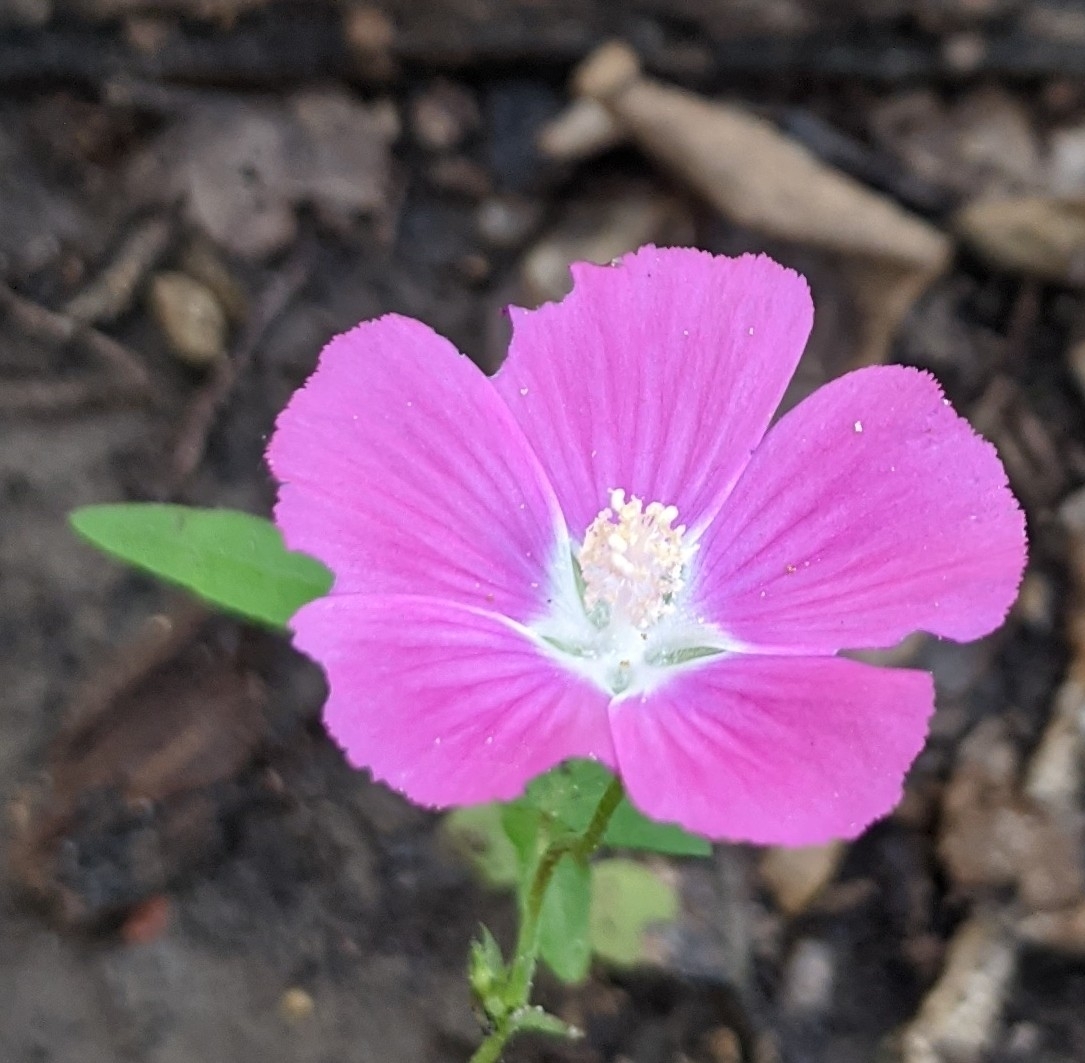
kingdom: Plantae
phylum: Tracheophyta
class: Magnoliopsida
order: Malvales
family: Malvaceae
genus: Callirhoe
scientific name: Callirhoe involucrata
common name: Purple poppy-mallow
